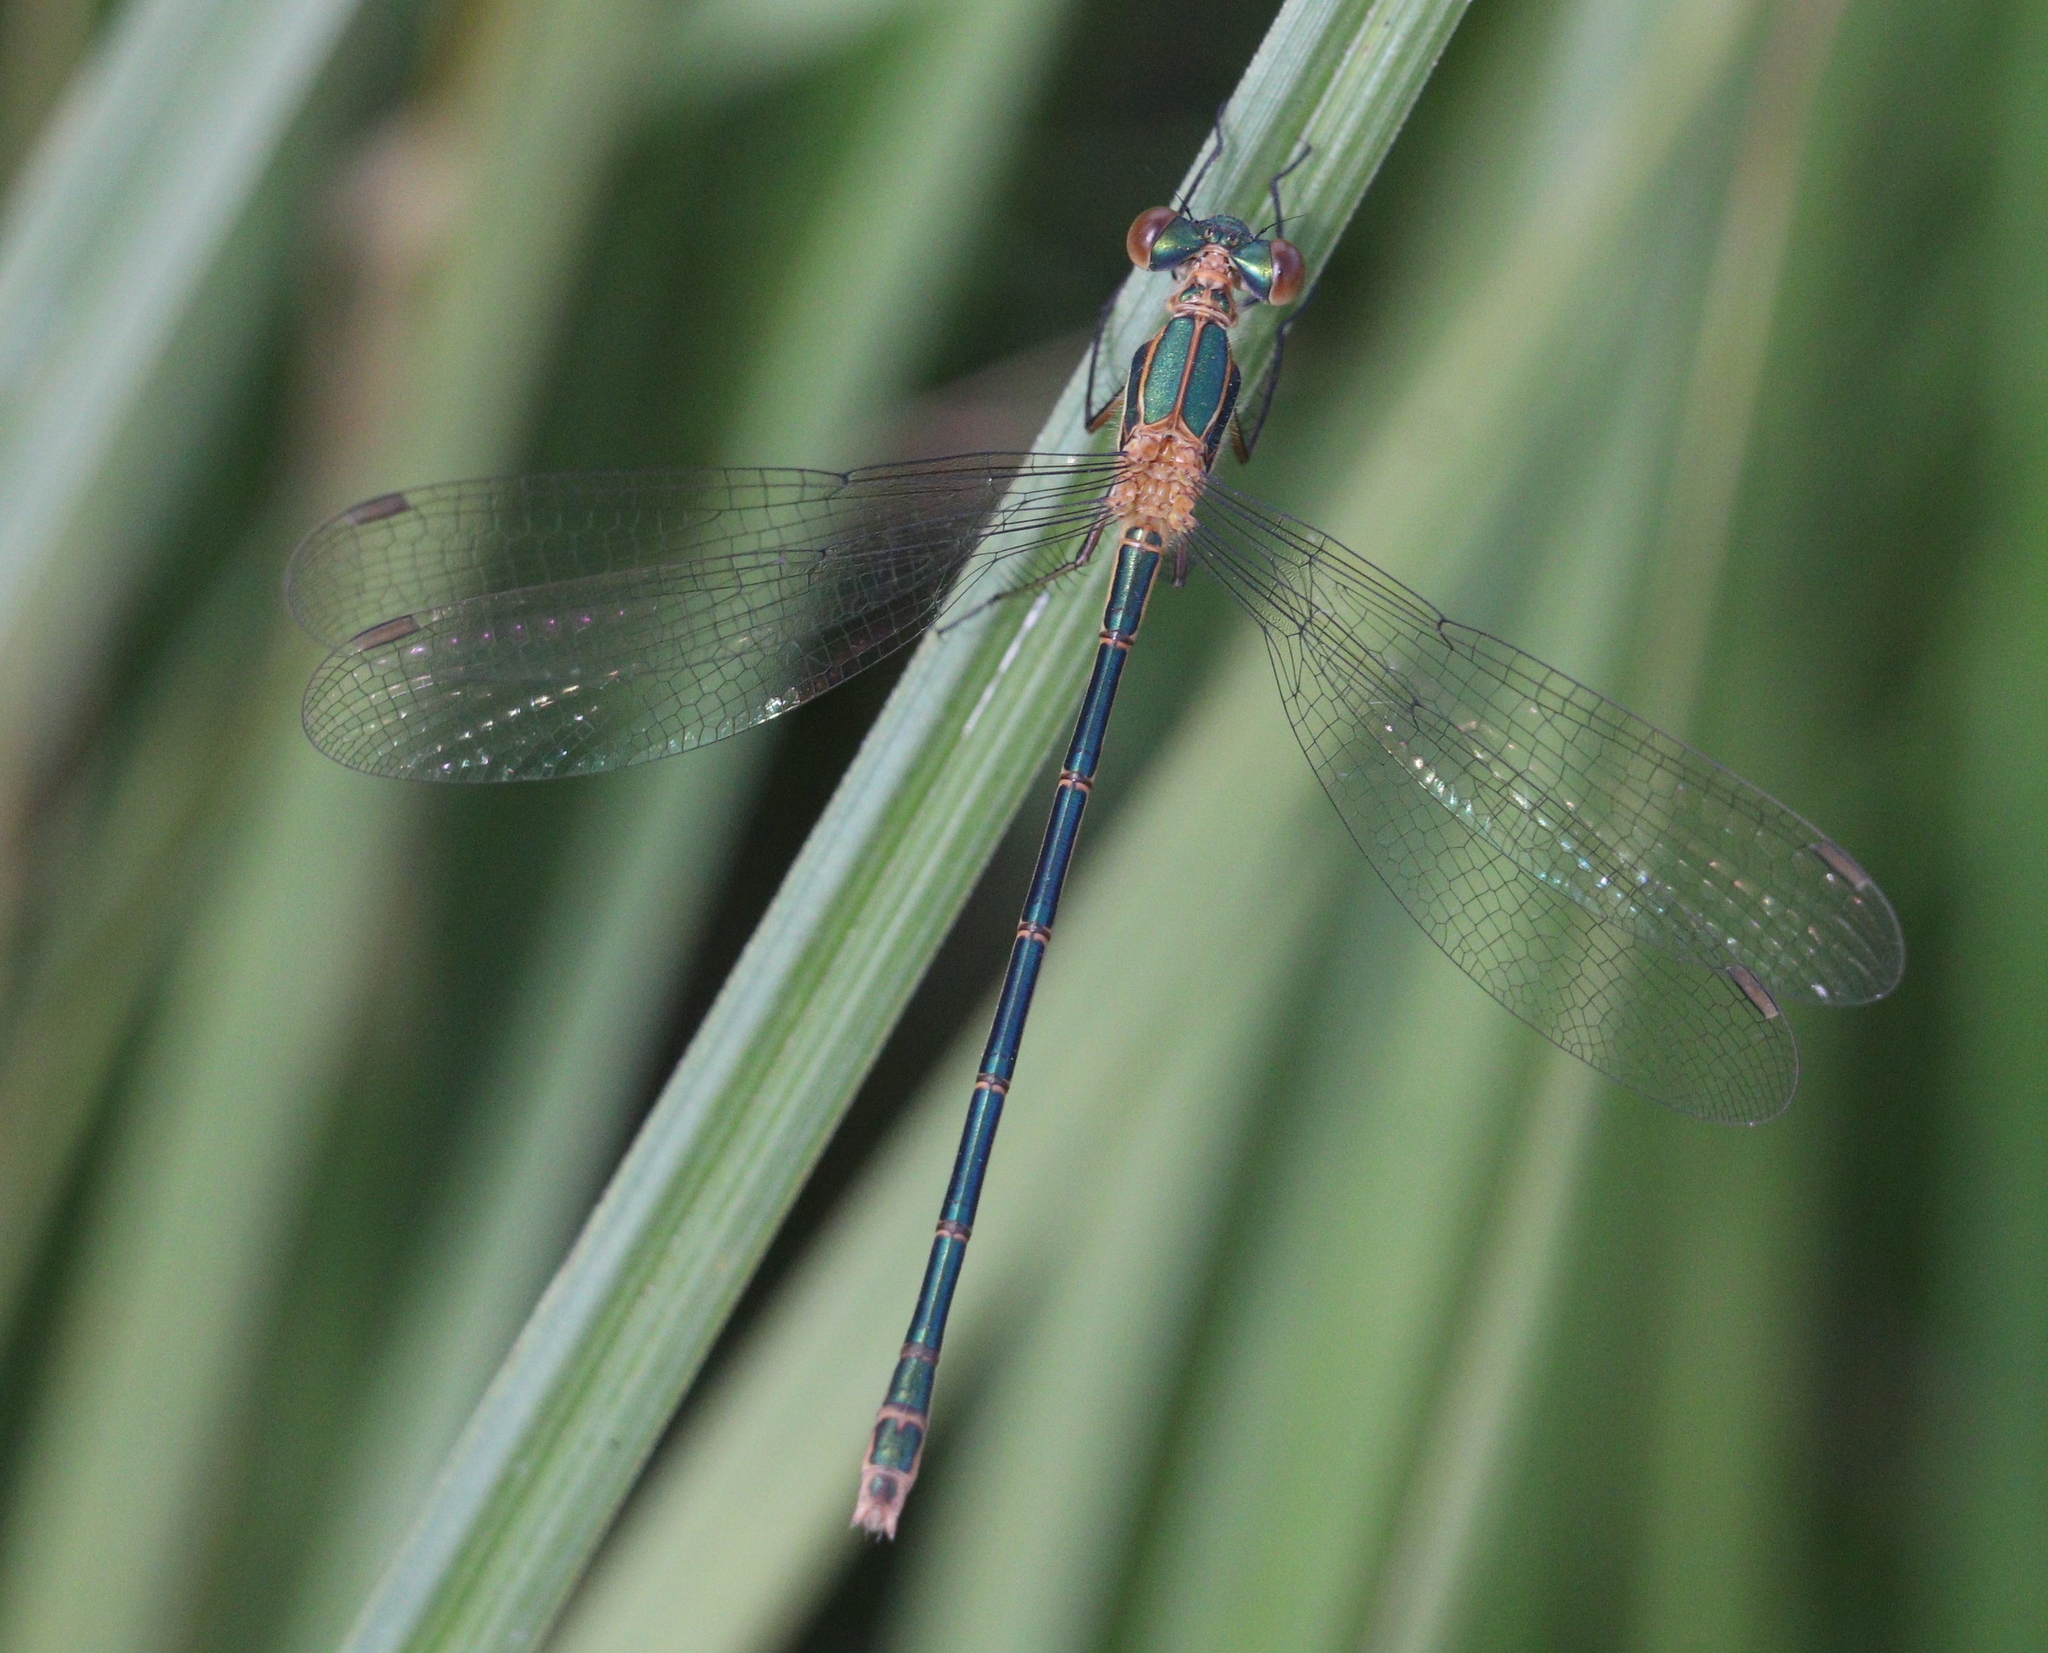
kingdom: Animalia
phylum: Arthropoda
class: Insecta
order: Odonata
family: Lestidae
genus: Lestes
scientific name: Lestes sponsa
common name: Common spreadwing
